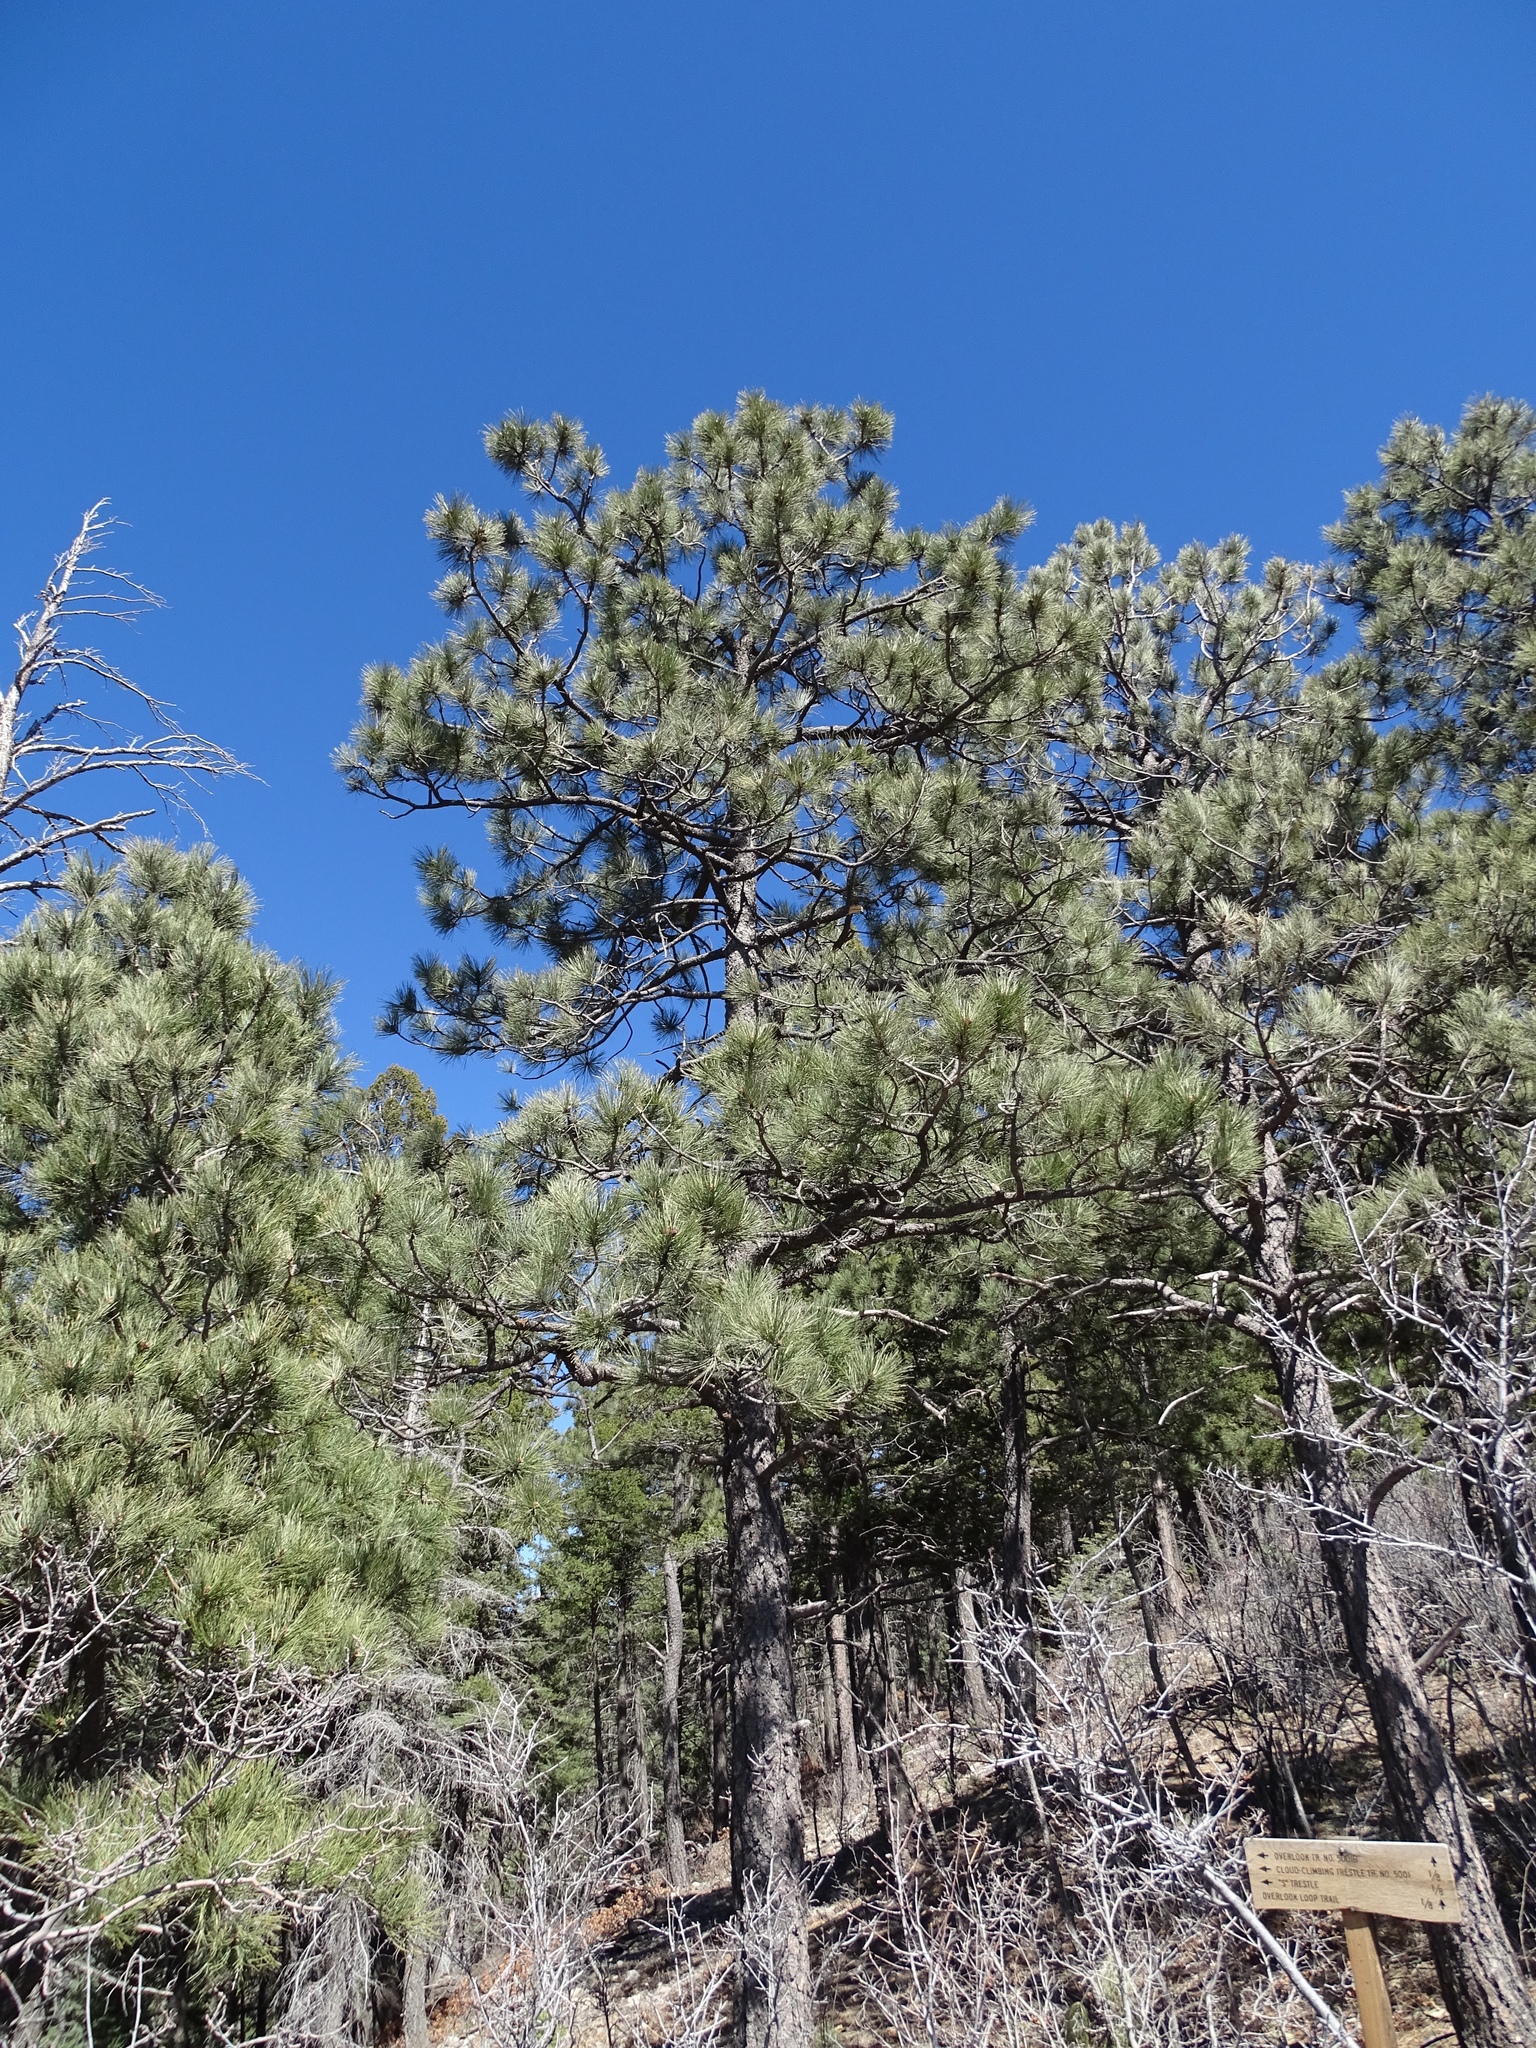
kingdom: Plantae
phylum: Tracheophyta
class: Pinopsida
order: Pinales
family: Pinaceae
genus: Pinus
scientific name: Pinus ponderosa
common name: Western yellow-pine
